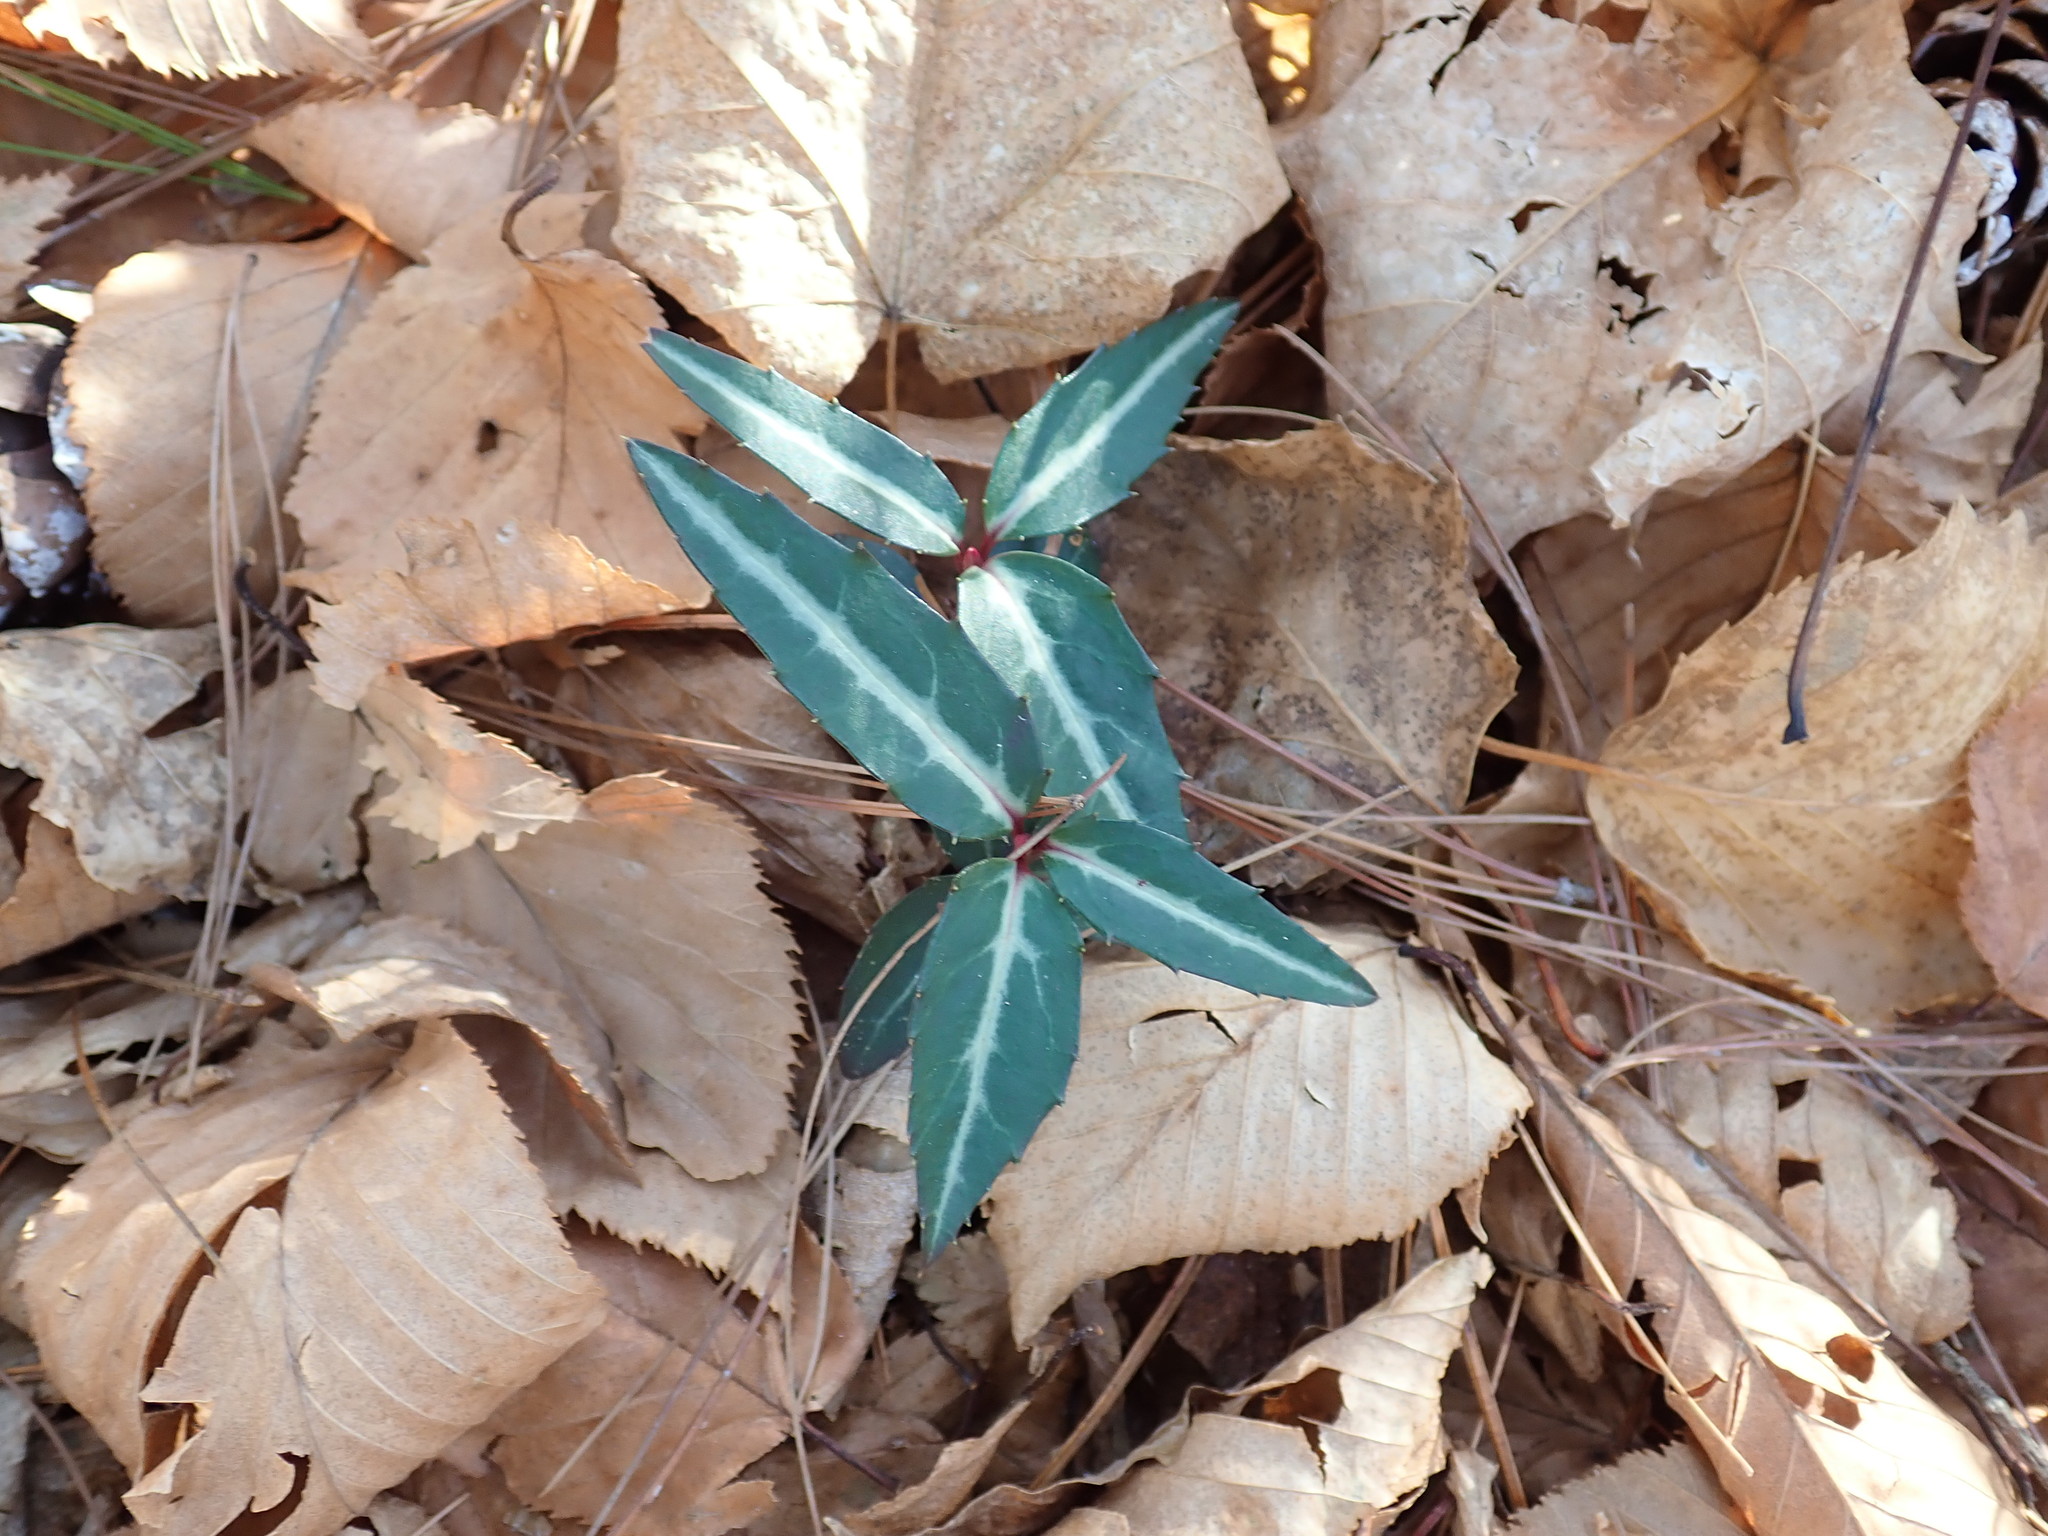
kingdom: Plantae
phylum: Tracheophyta
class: Magnoliopsida
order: Ericales
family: Ericaceae
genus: Chimaphila
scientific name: Chimaphila maculata
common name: Spotted pipsissewa
